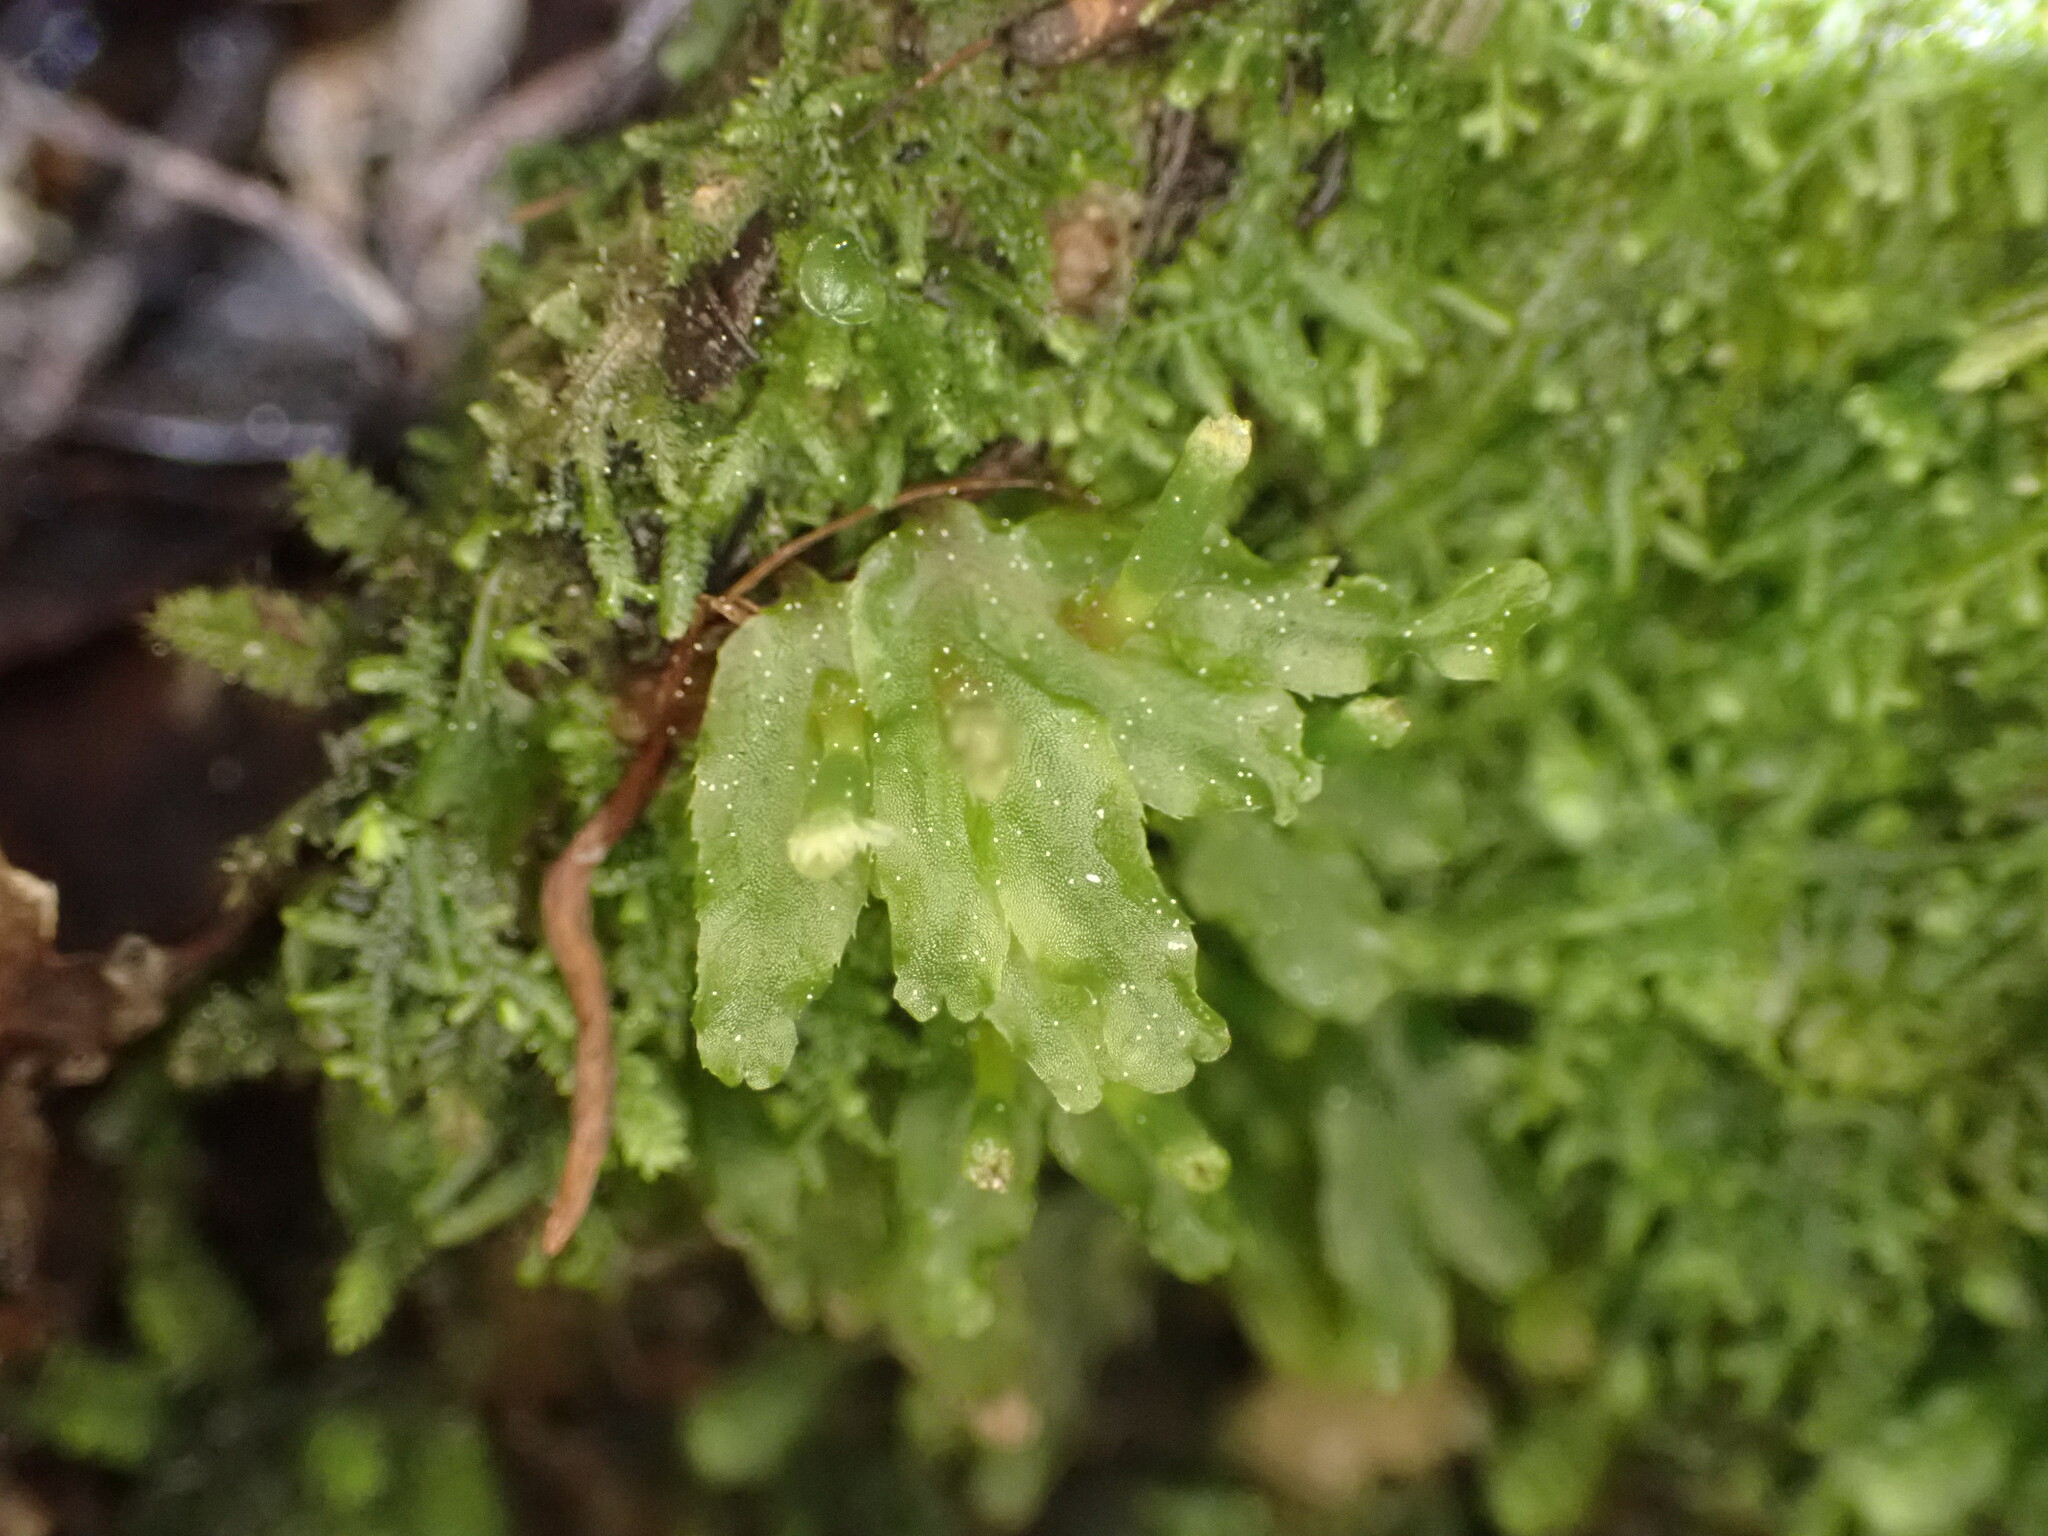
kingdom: Plantae
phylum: Marchantiophyta
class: Jungermanniopsida
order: Pallaviciniales
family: Pallaviciniaceae
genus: Symphyogyna
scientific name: Symphyogyna hymenophyllum
